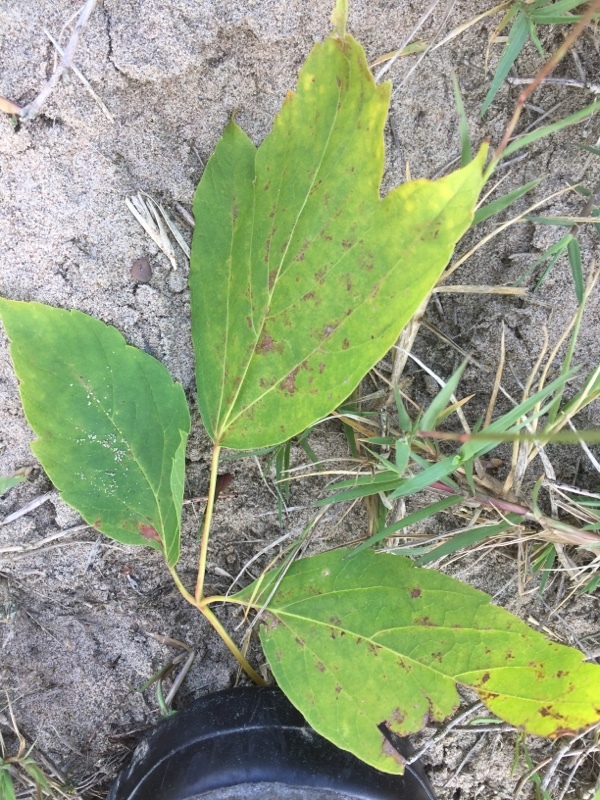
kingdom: Plantae
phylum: Tracheophyta
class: Magnoliopsida
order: Sapindales
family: Sapindaceae
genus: Acer
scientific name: Acer negundo
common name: Ashleaf maple
